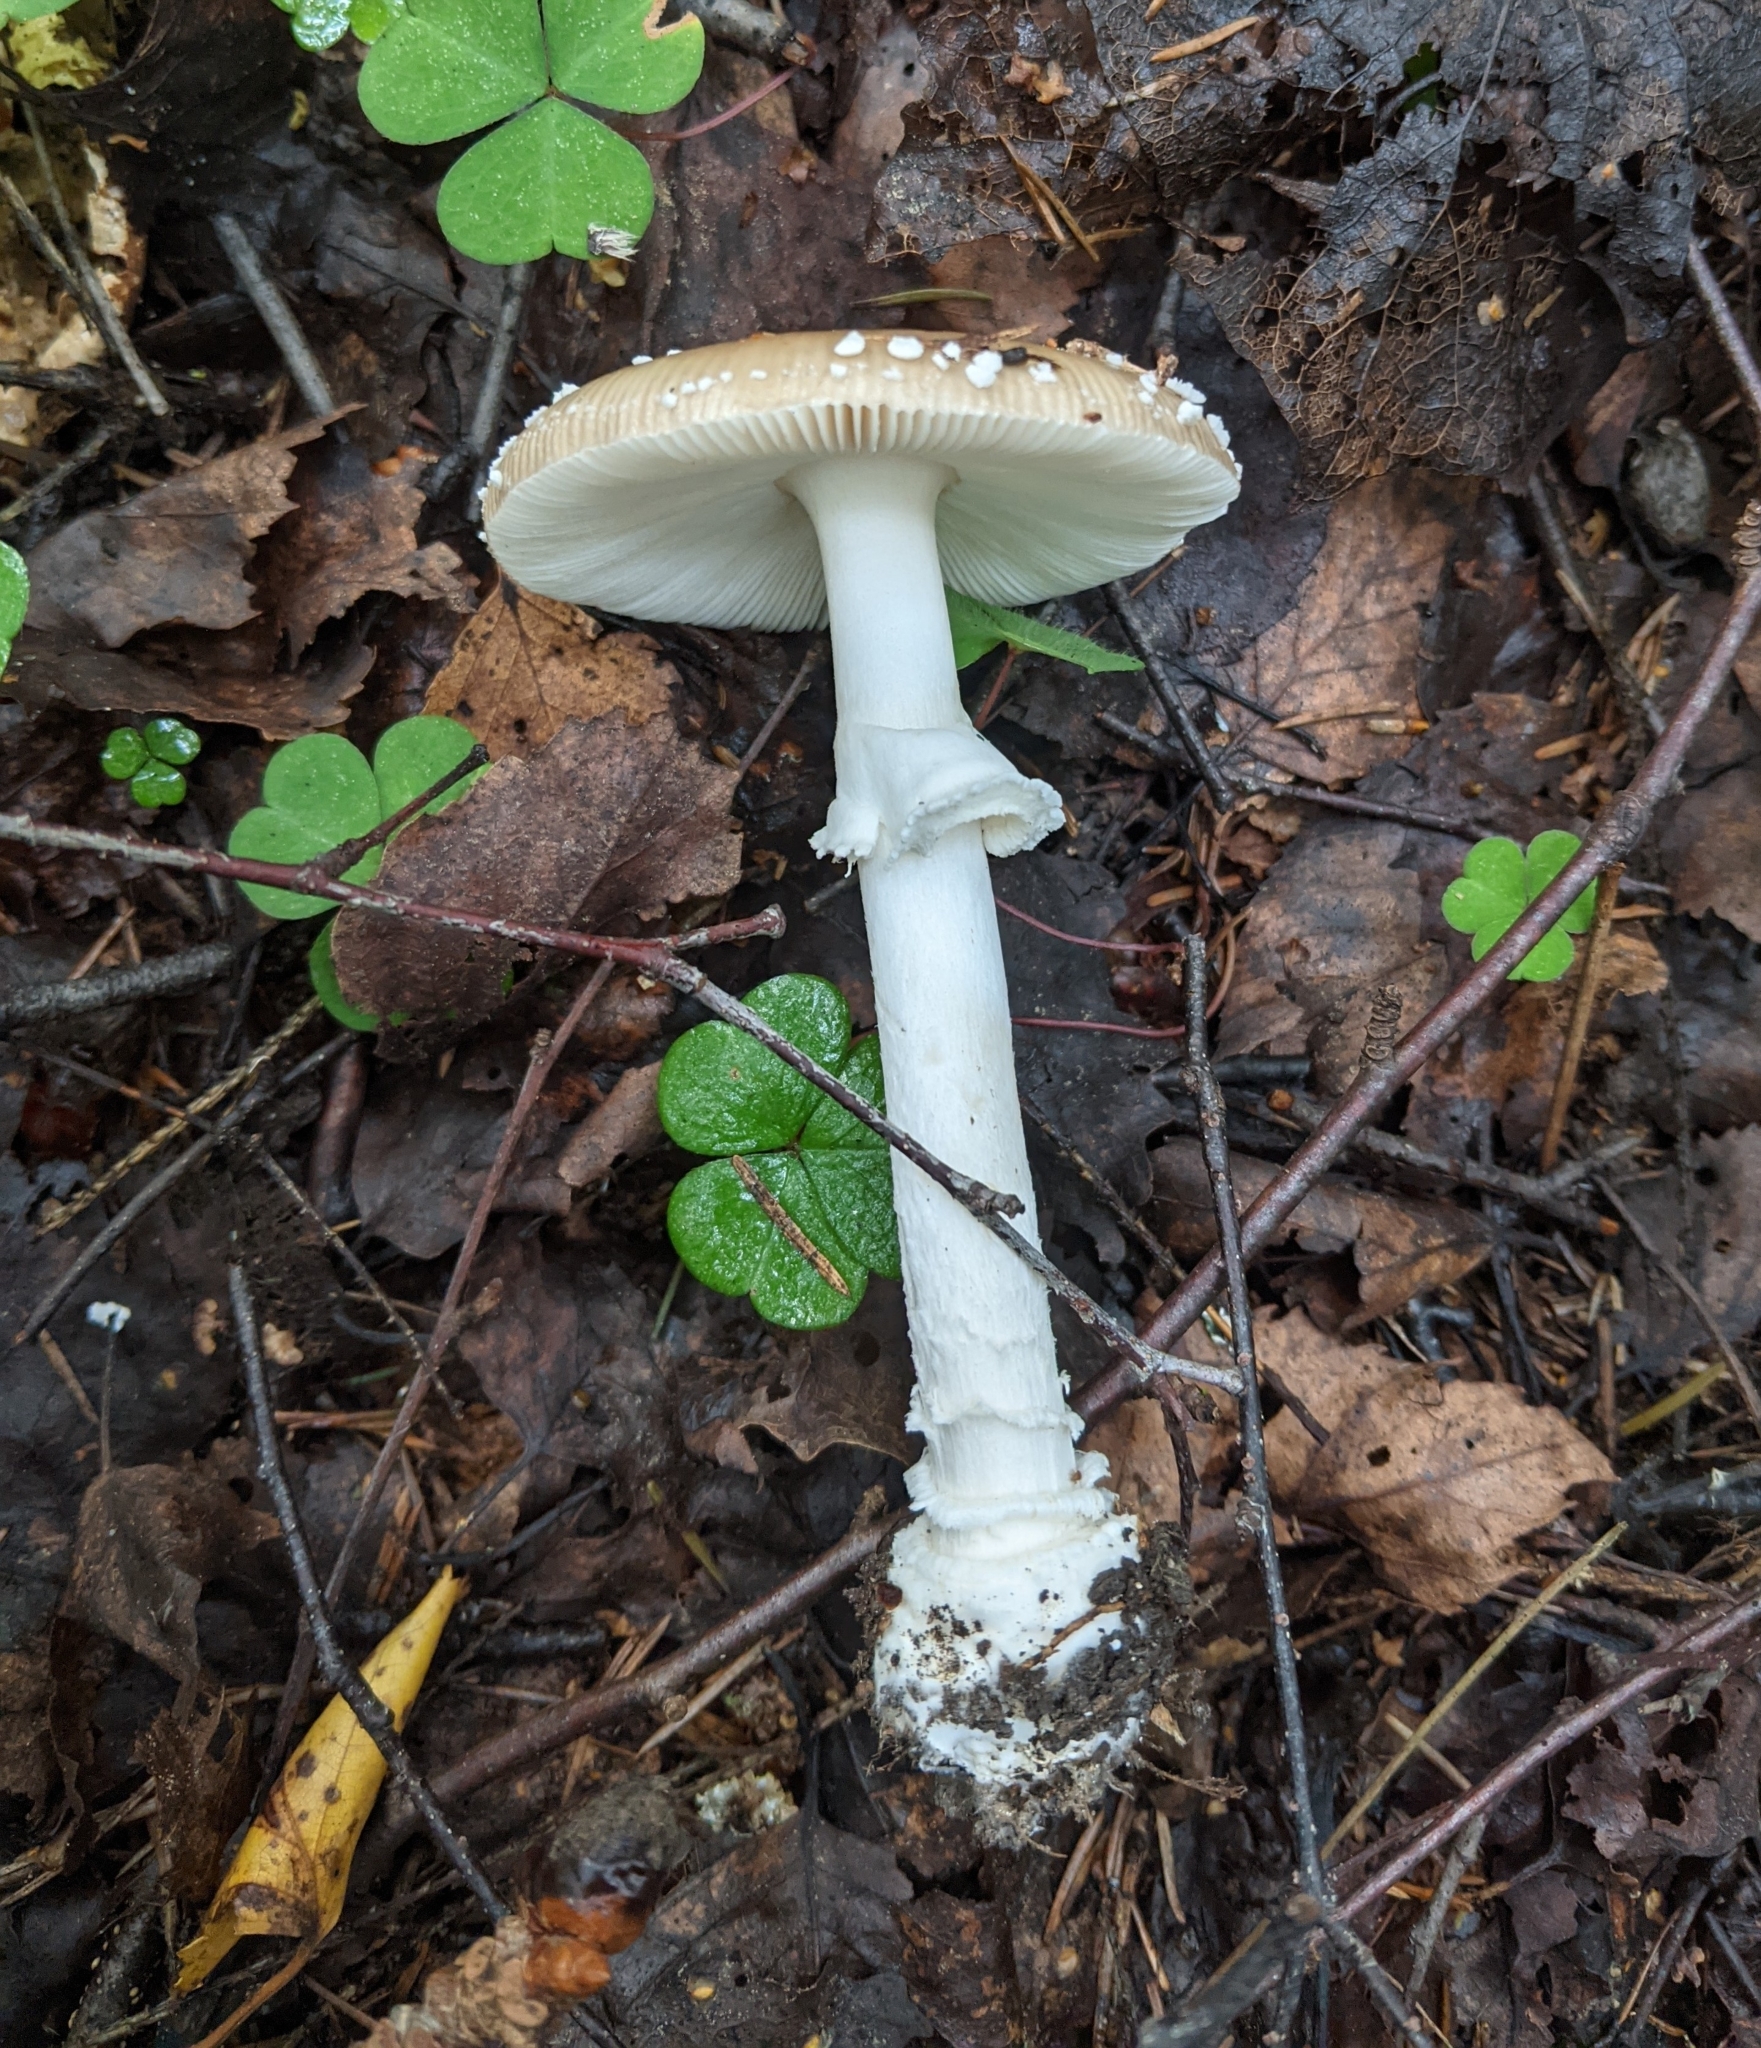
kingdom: Fungi
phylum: Basidiomycota
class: Agaricomycetes
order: Agaricales
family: Amanitaceae
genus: Amanita
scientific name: Amanita pantherina
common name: Panthercap
